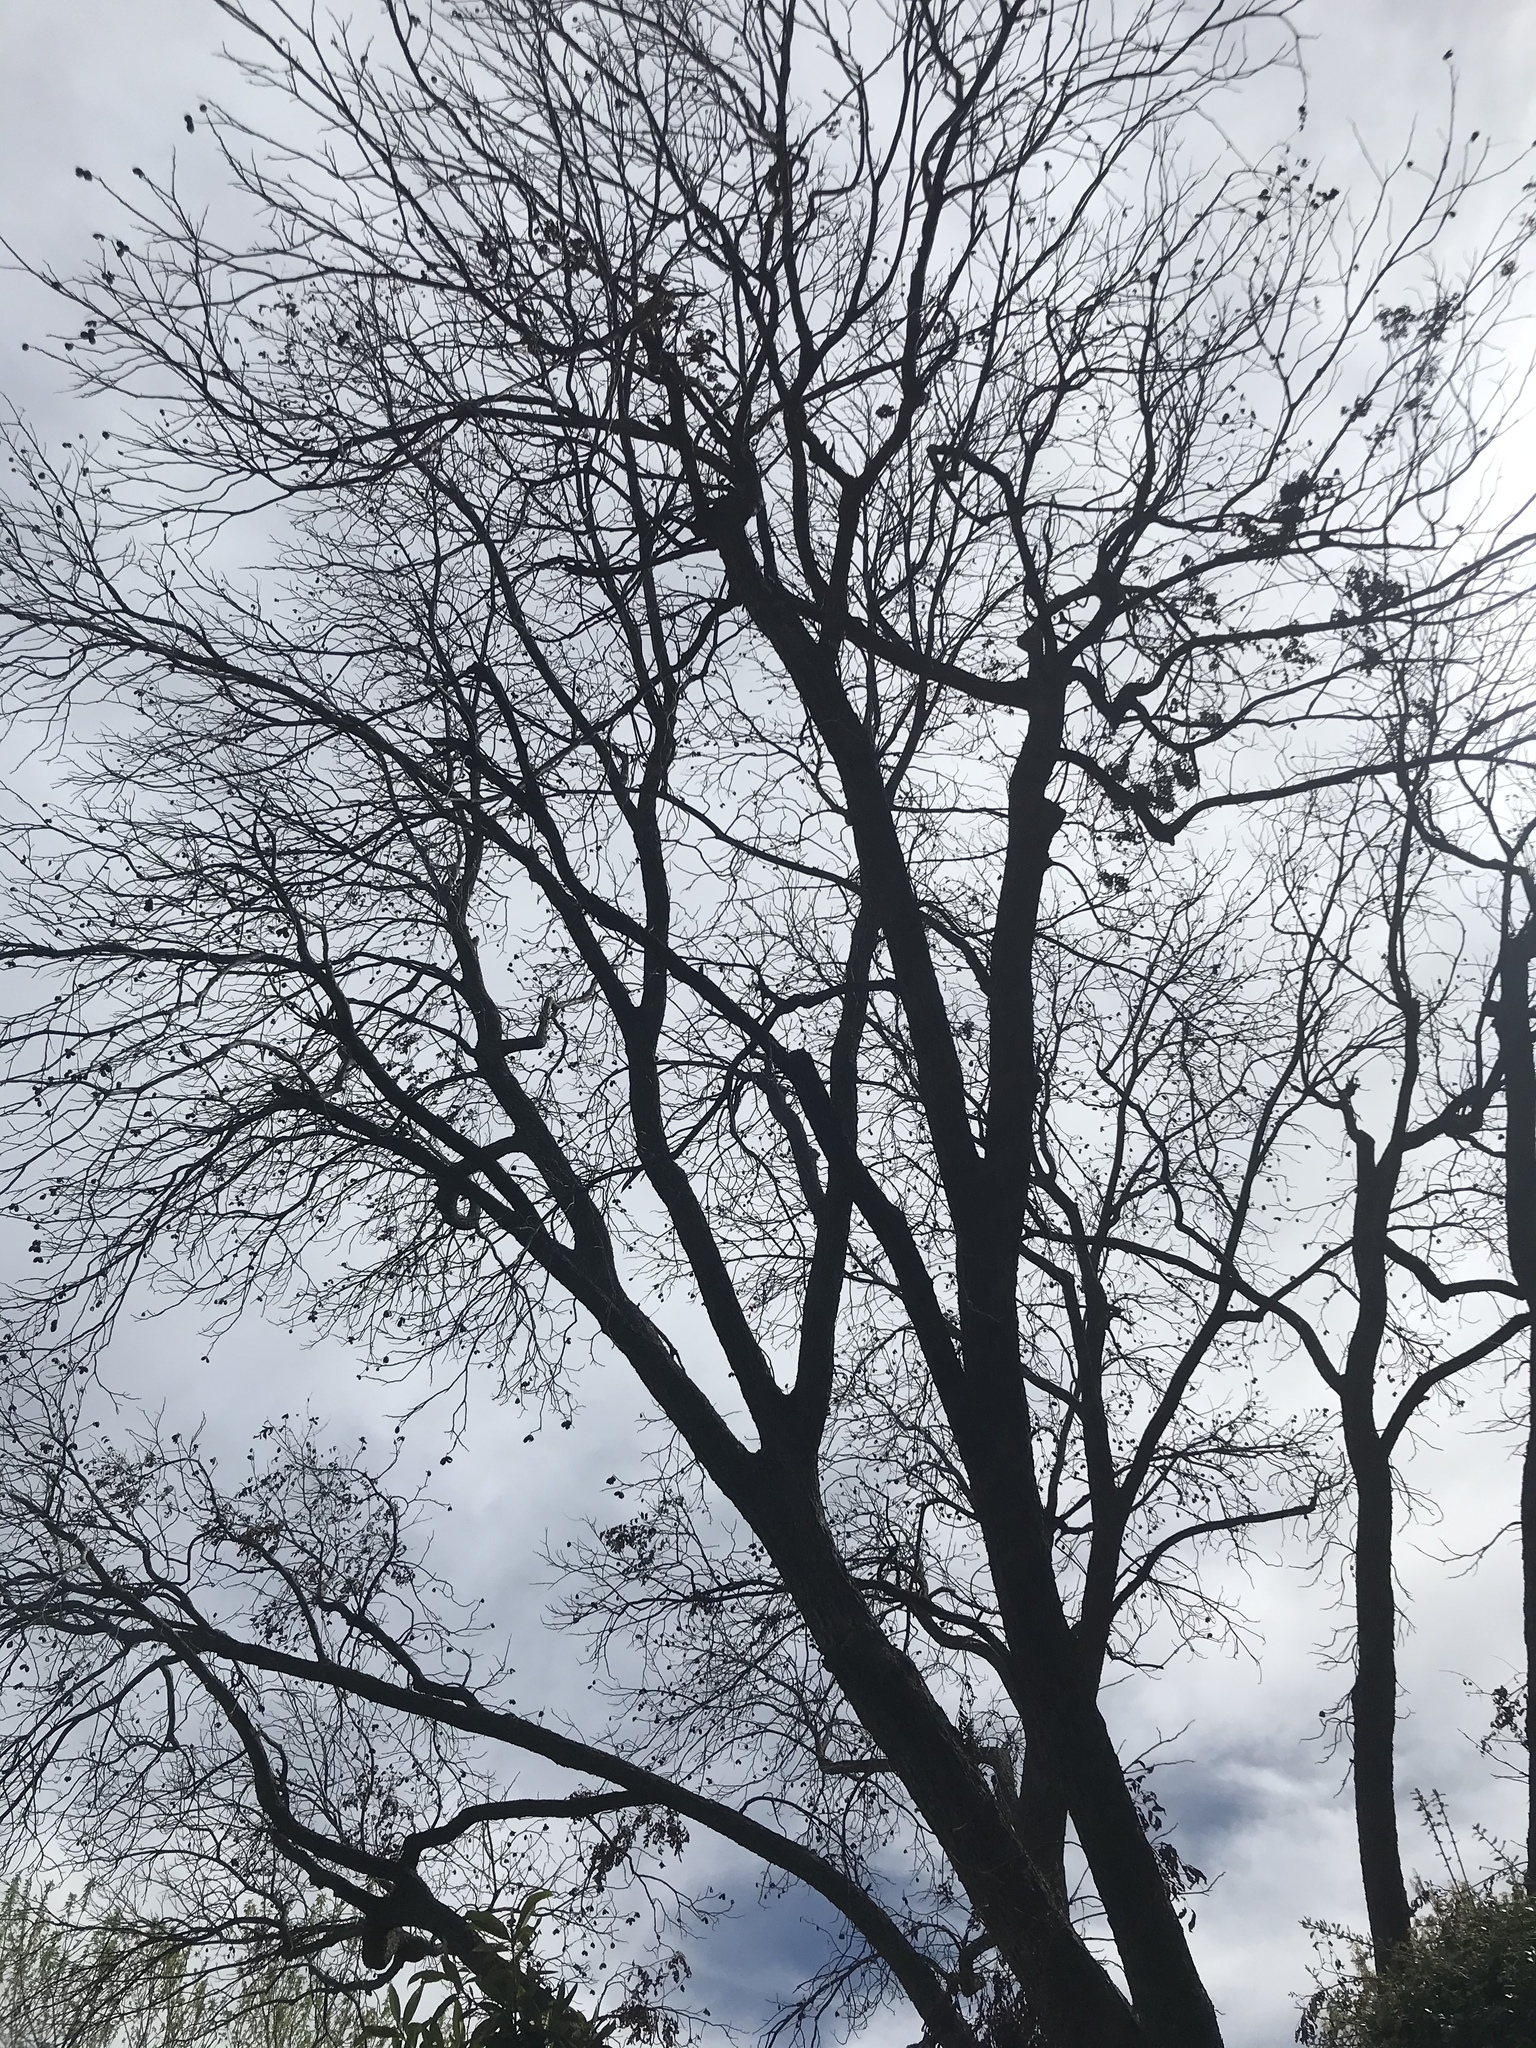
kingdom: Plantae
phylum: Tracheophyta
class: Magnoliopsida
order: Fagales
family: Juglandaceae
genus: Carya
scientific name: Carya illinoinensis
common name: Pecan
